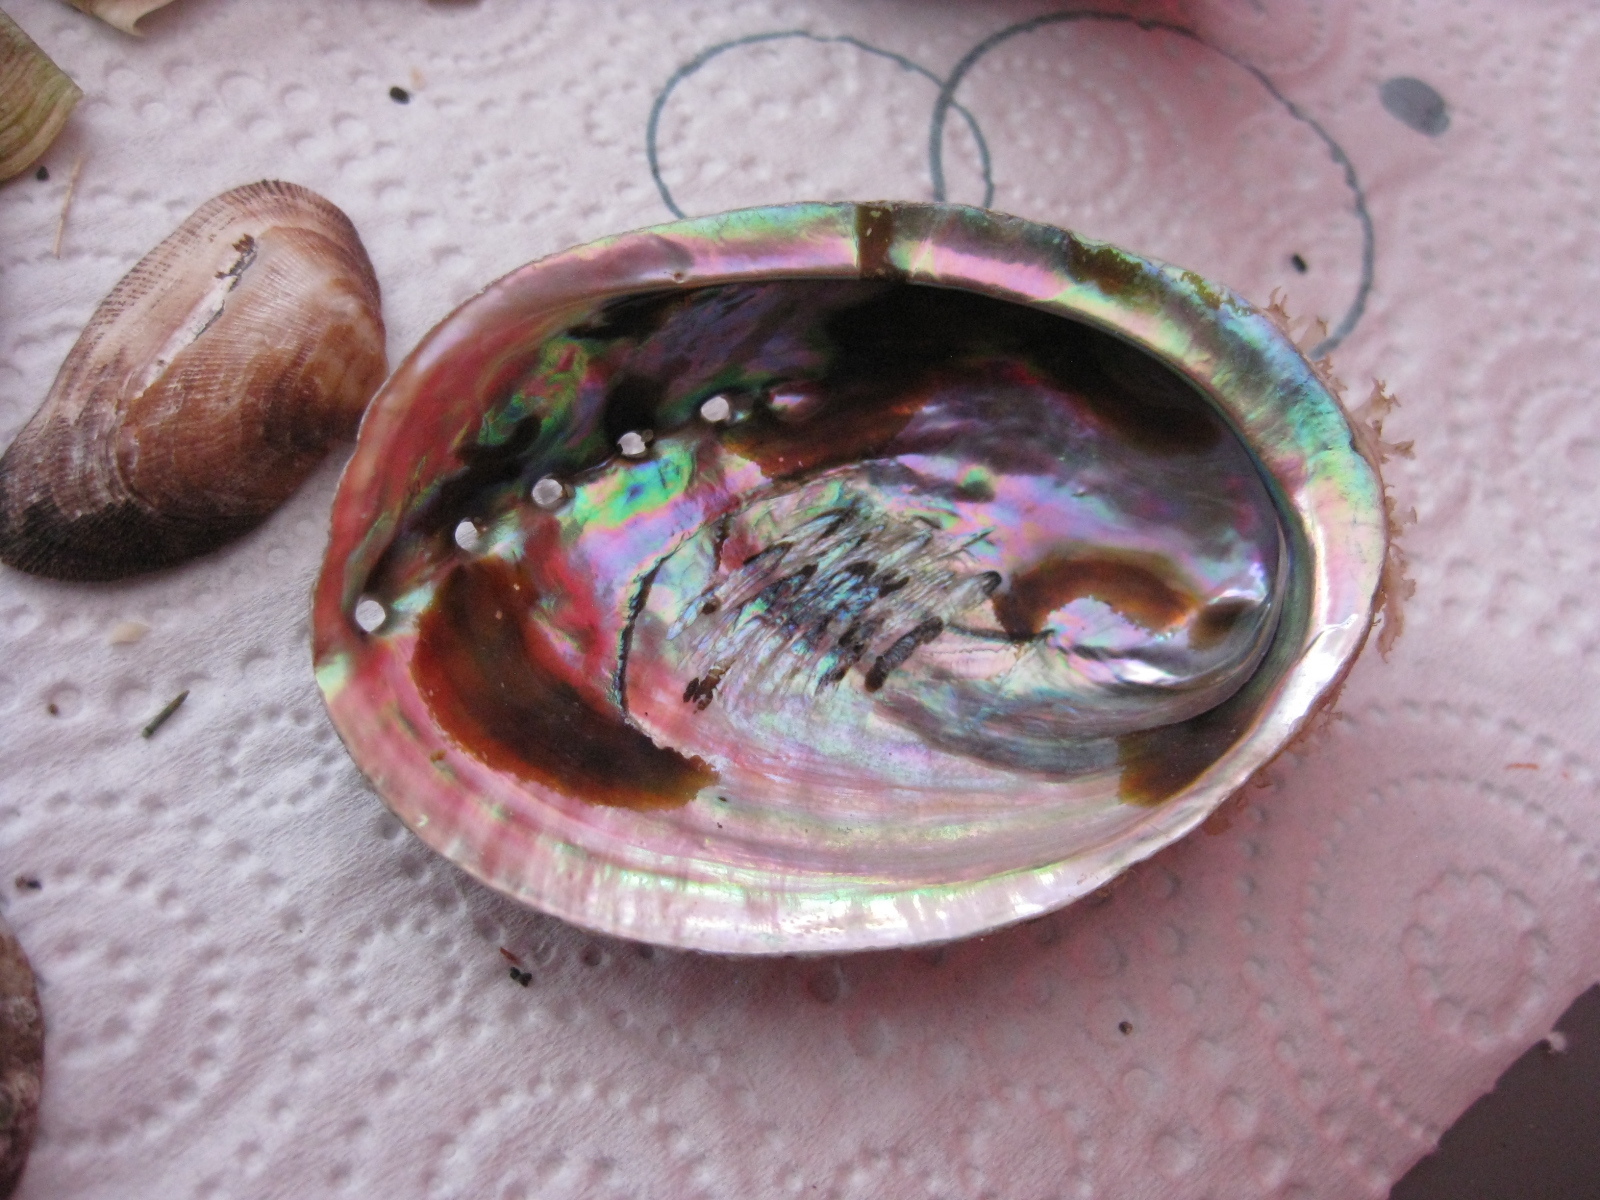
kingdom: Animalia
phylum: Mollusca
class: Gastropoda
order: Lepetellida
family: Haliotidae
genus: Haliotis
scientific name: Haliotis iris
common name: Abalone
